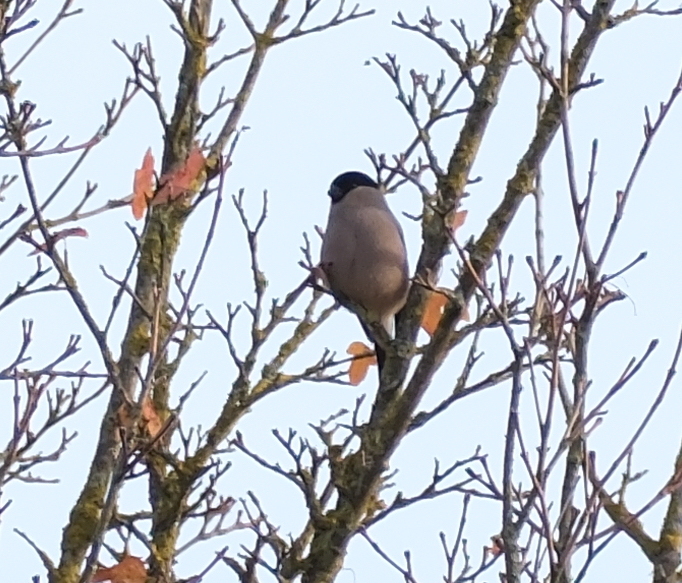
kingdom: Animalia
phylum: Chordata
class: Aves
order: Passeriformes
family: Fringillidae
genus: Pyrrhula
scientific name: Pyrrhula pyrrhula
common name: Eurasian bullfinch
